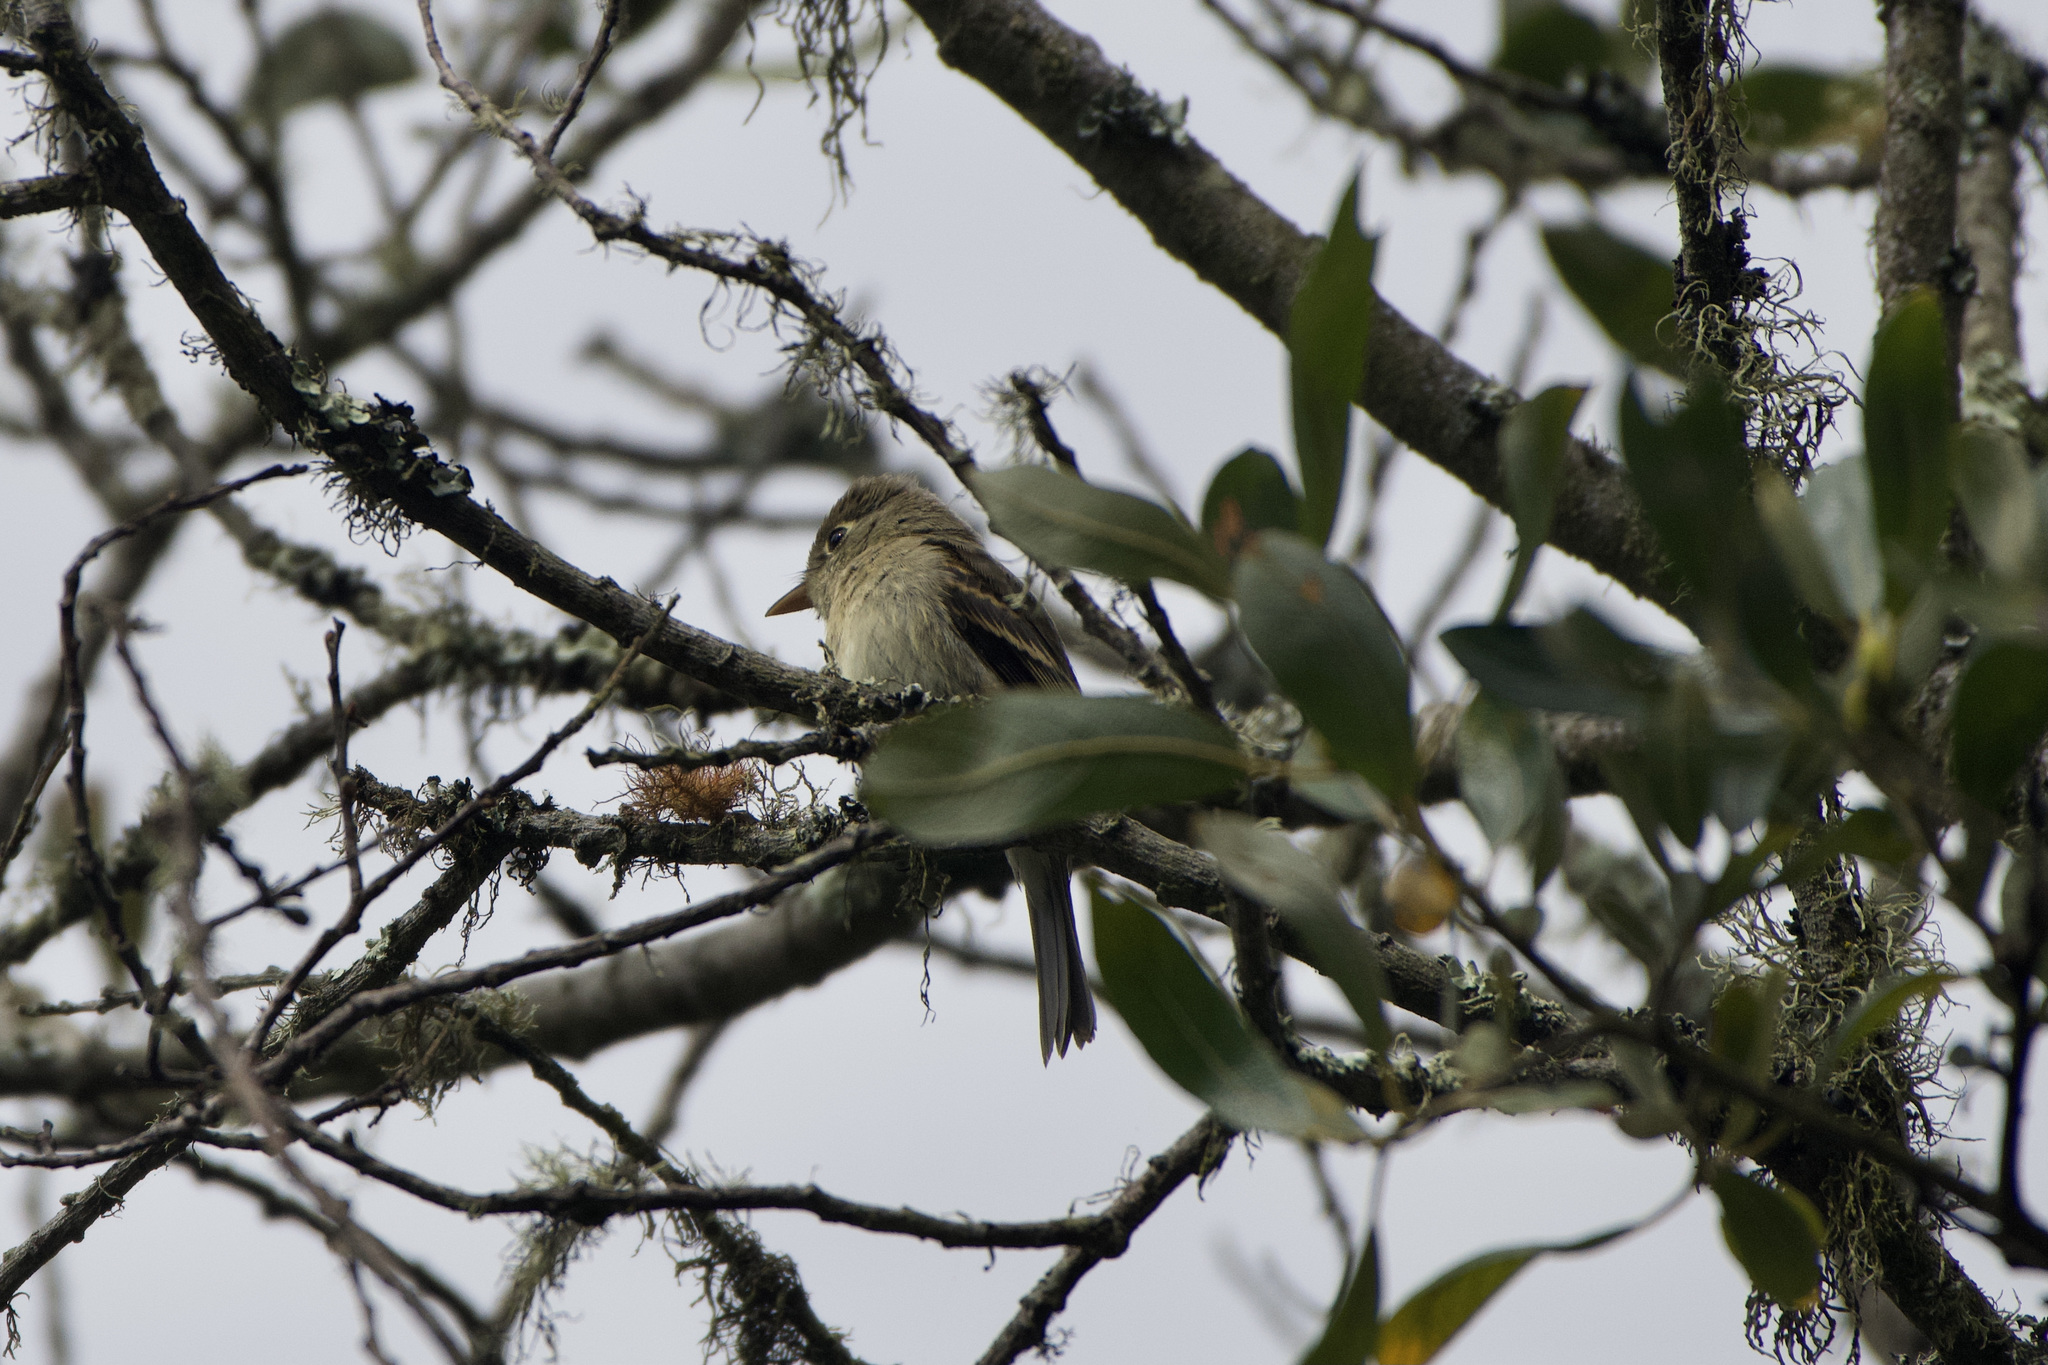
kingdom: Animalia
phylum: Chordata
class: Aves
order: Passeriformes
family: Tyrannidae
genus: Empidonax
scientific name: Empidonax difficilis
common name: Pacific-slope flycatcher
